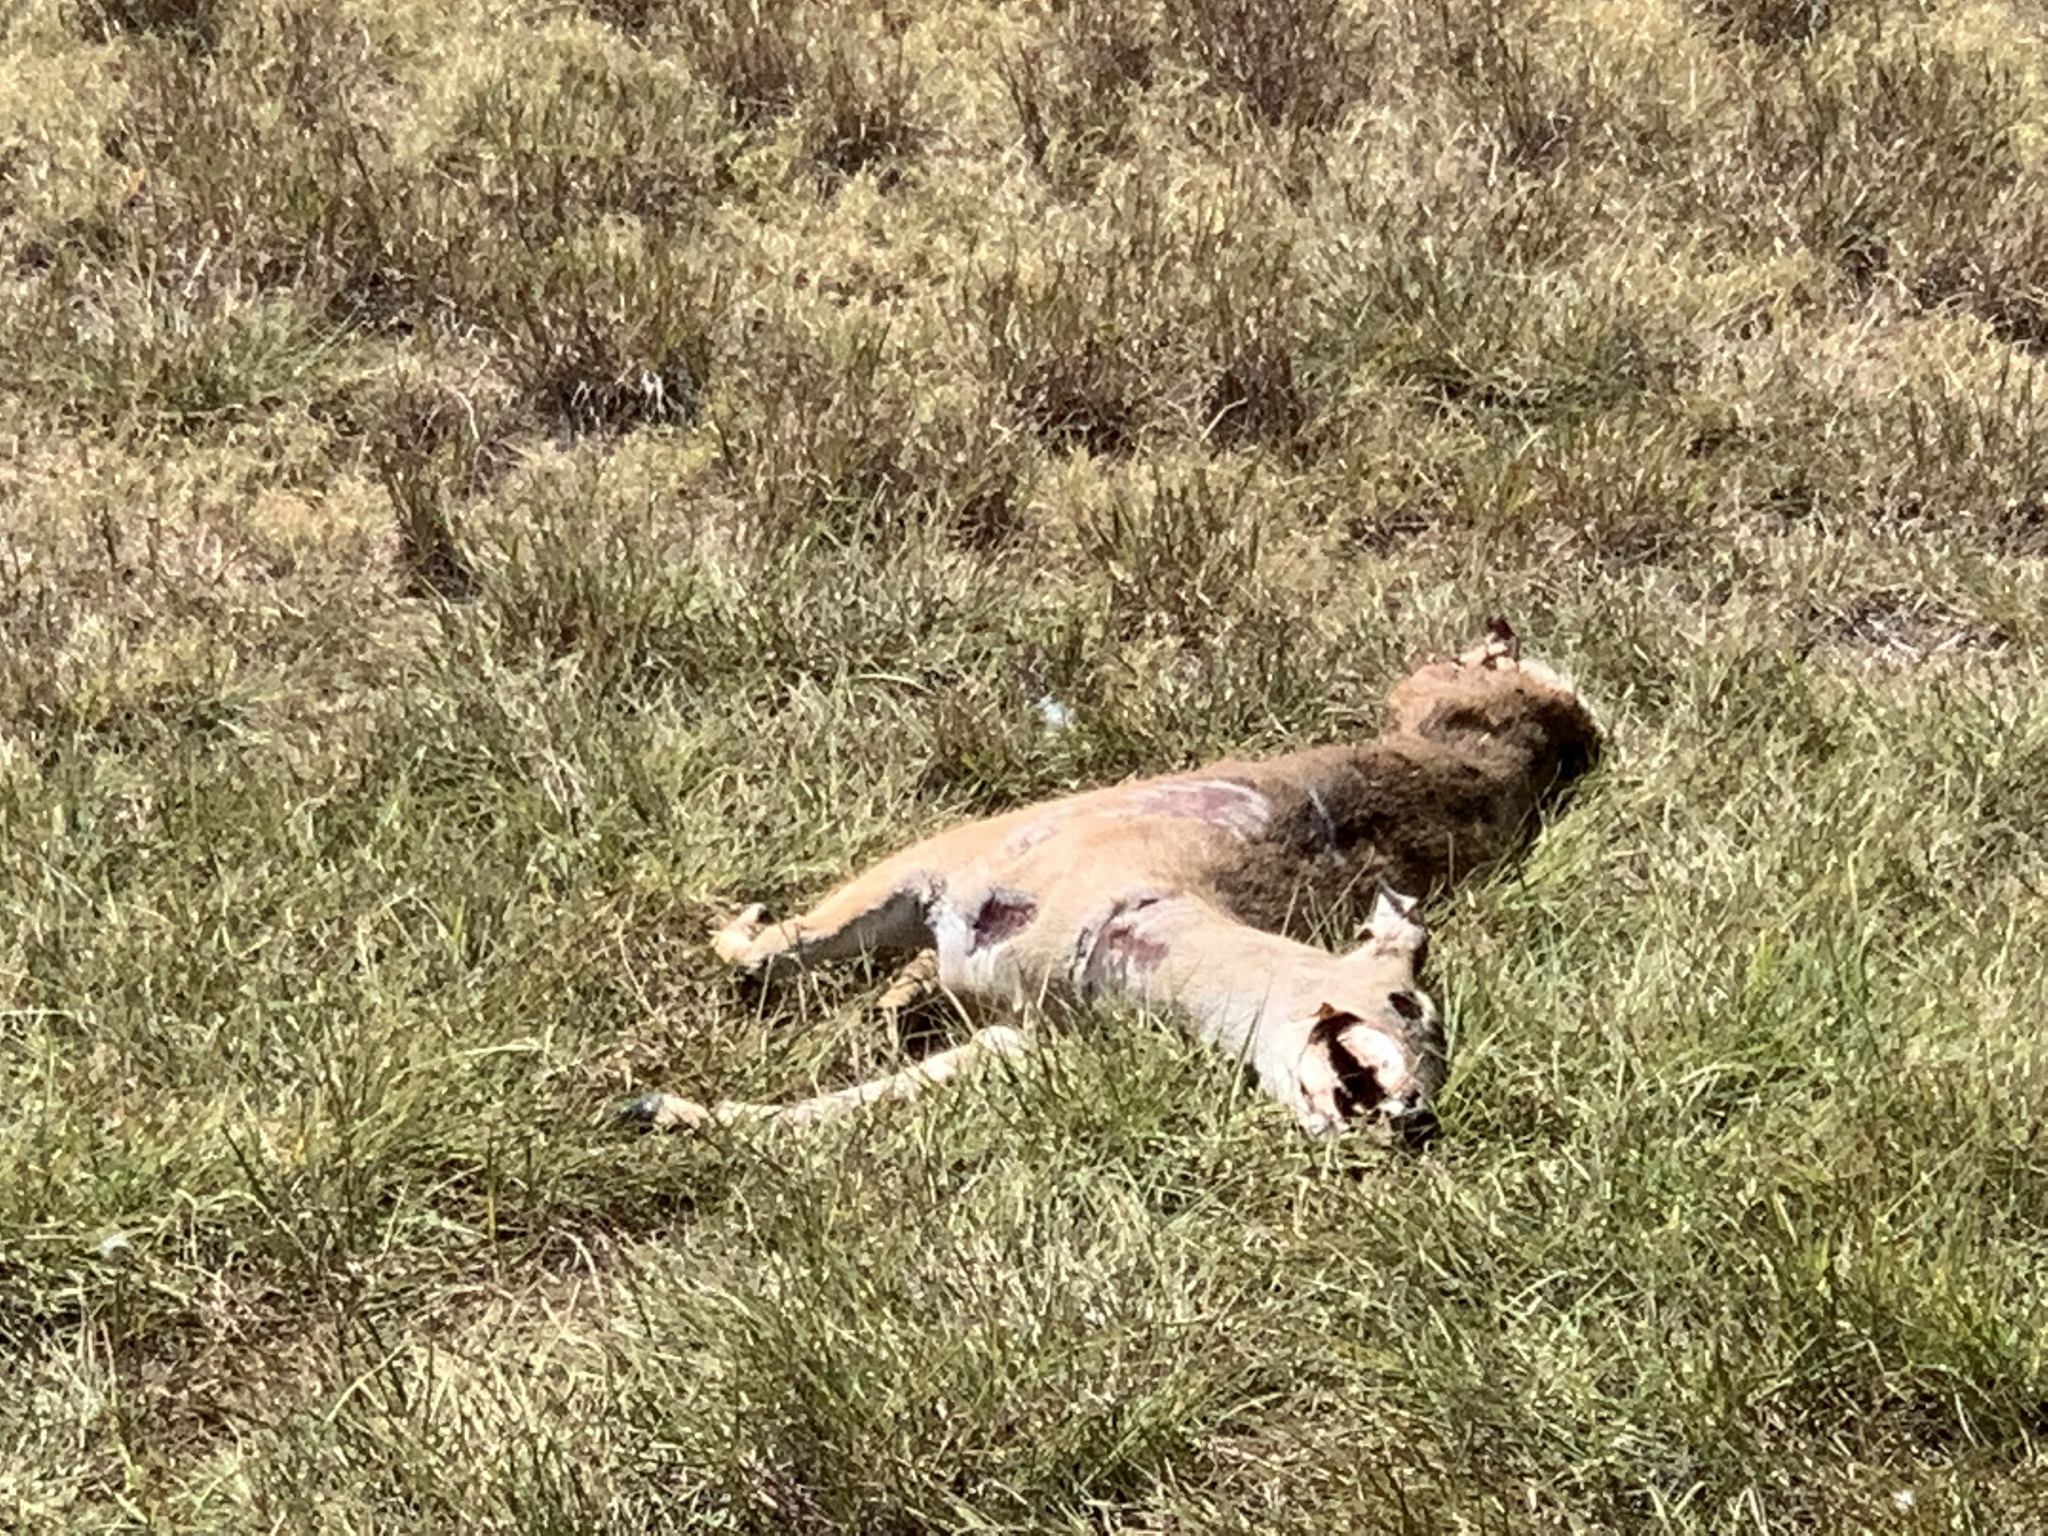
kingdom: Animalia
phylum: Chordata
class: Mammalia
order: Artiodactyla
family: Cervidae
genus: Odocoileus
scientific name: Odocoileus virginianus
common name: White-tailed deer
